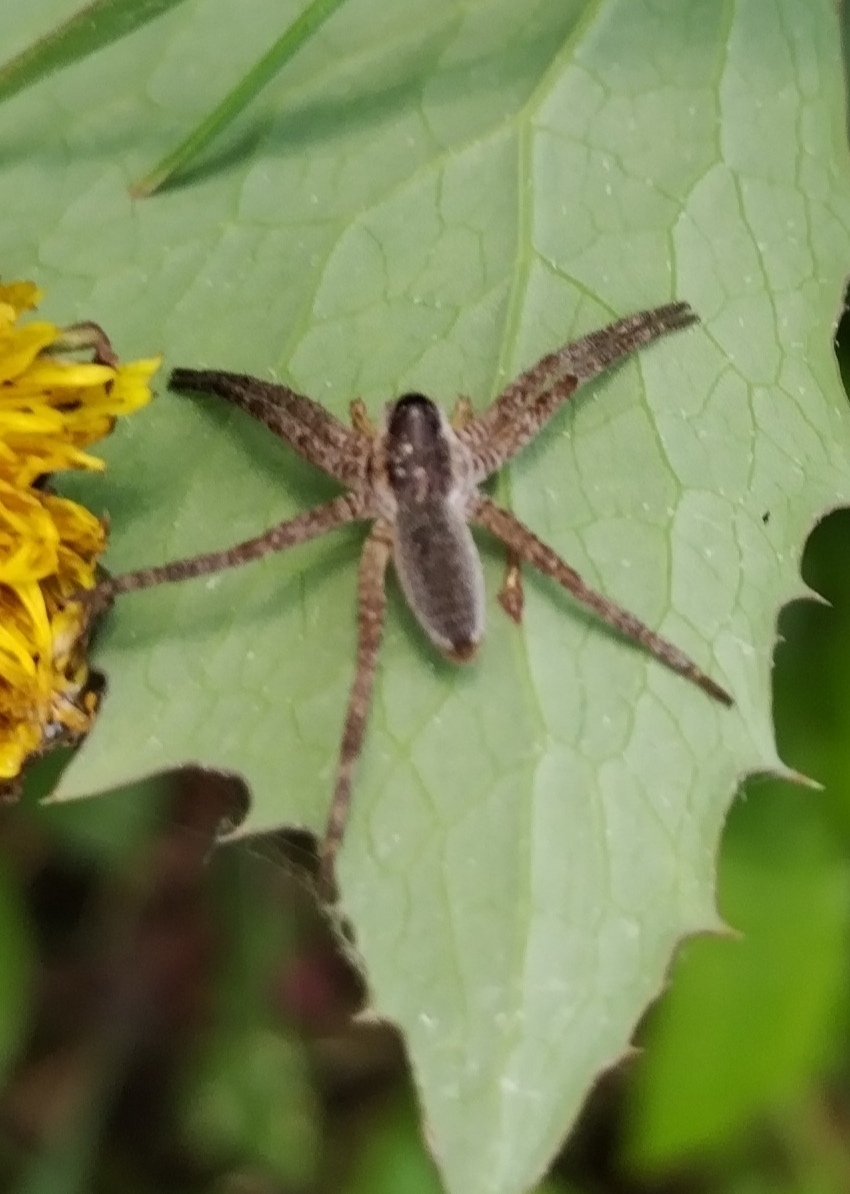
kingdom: Animalia
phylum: Arthropoda
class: Arachnida
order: Araneae
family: Pisauridae
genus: Dolomedes
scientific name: Dolomedes
